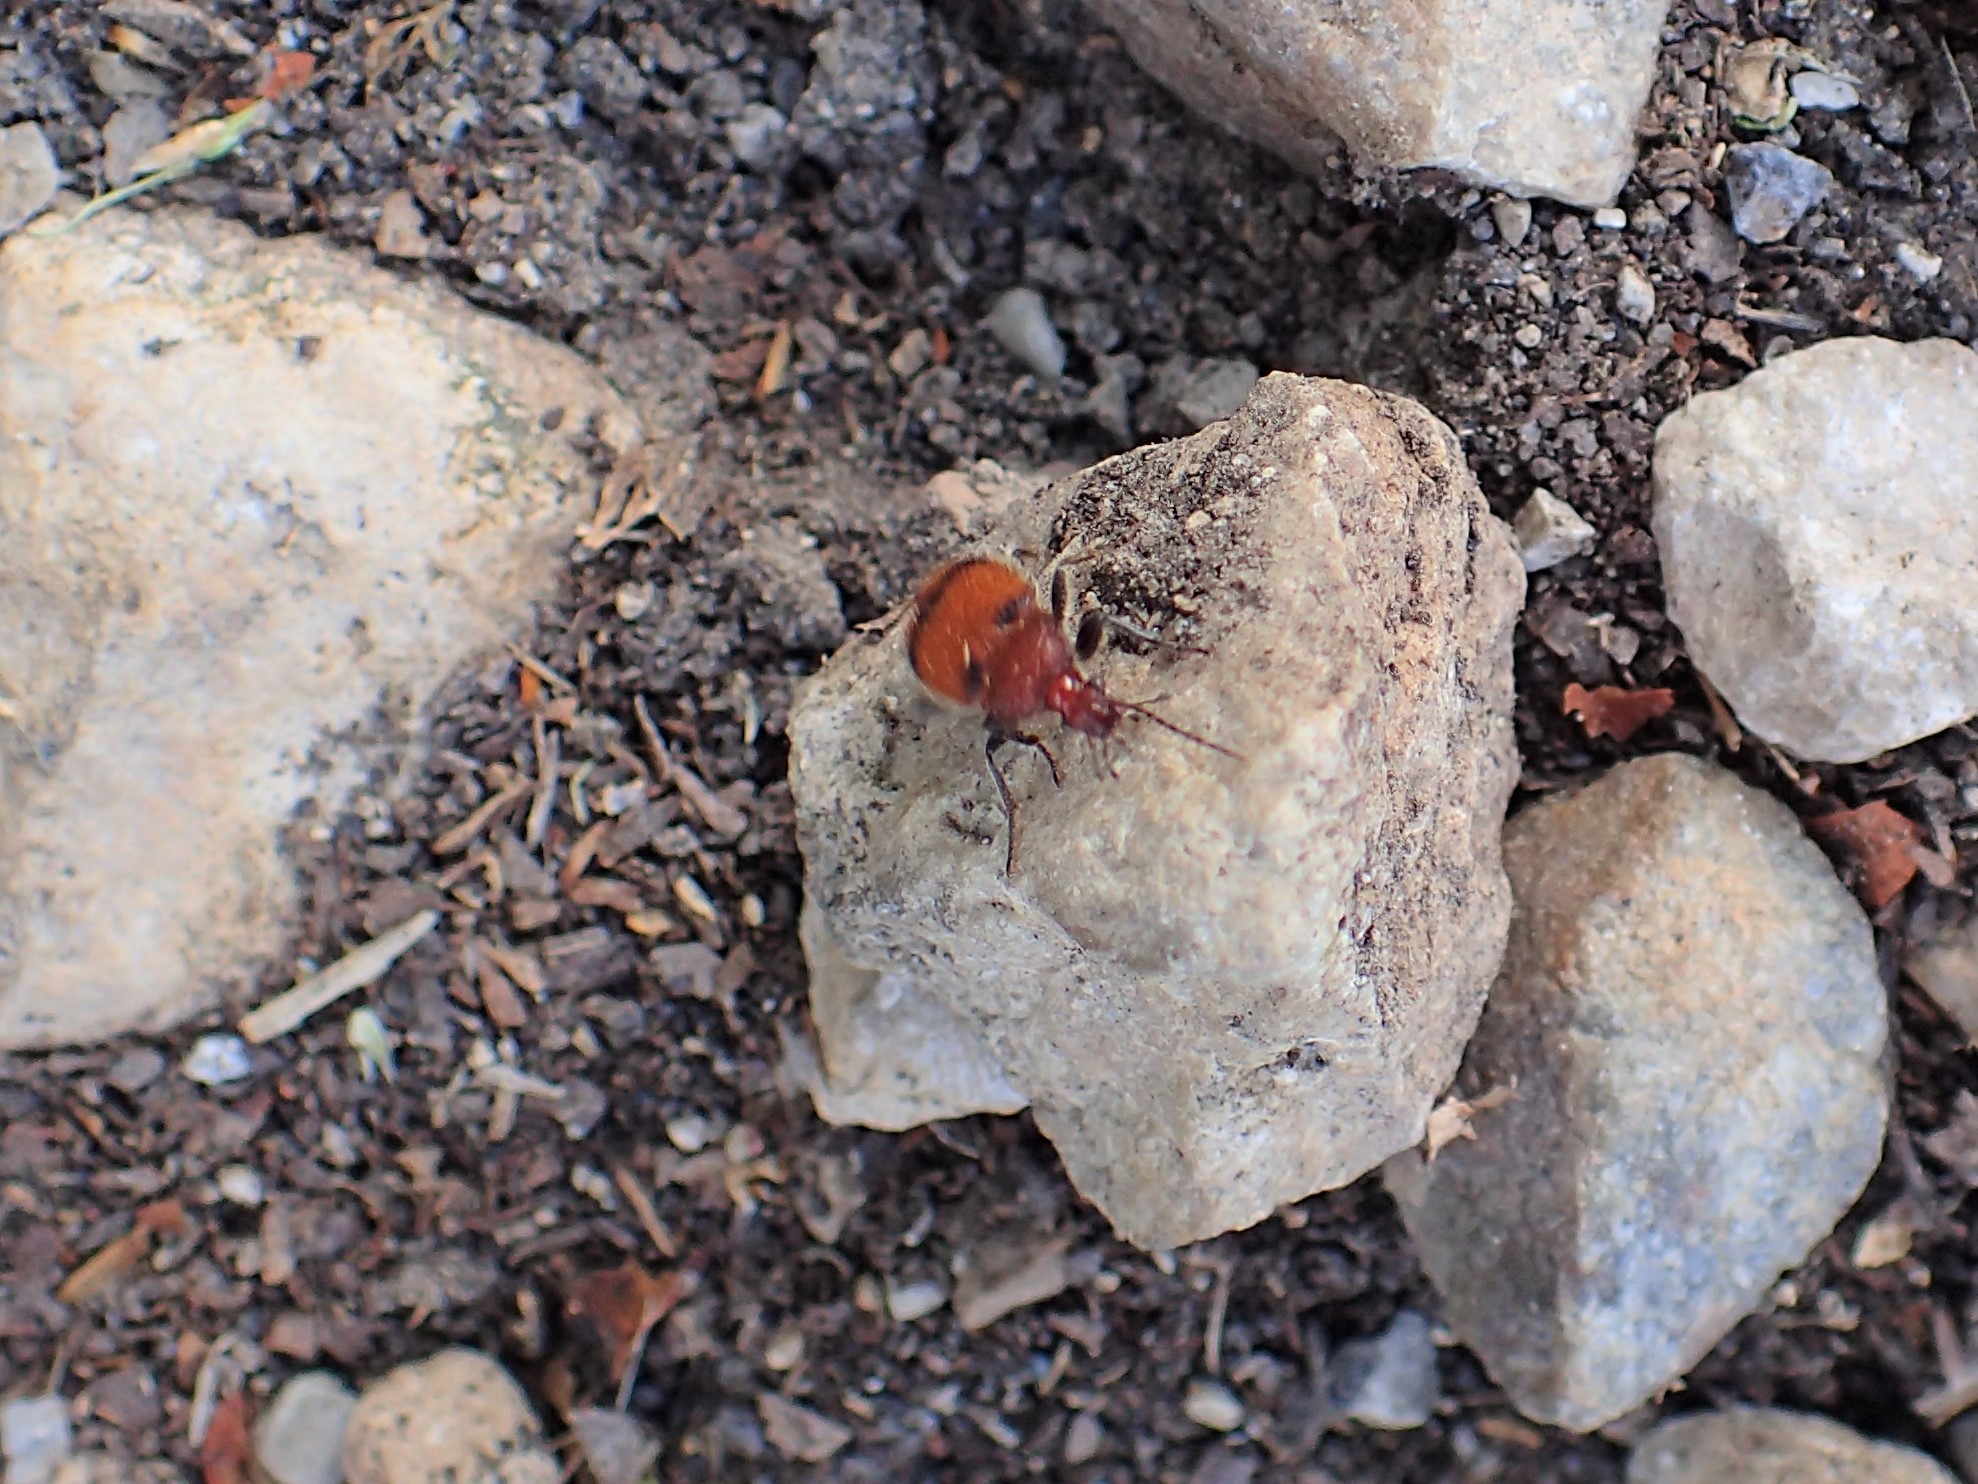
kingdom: Animalia
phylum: Arthropoda
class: Insecta
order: Coleoptera
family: Carabidae
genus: Panagaeus
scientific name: Panagaeus fasciatus
